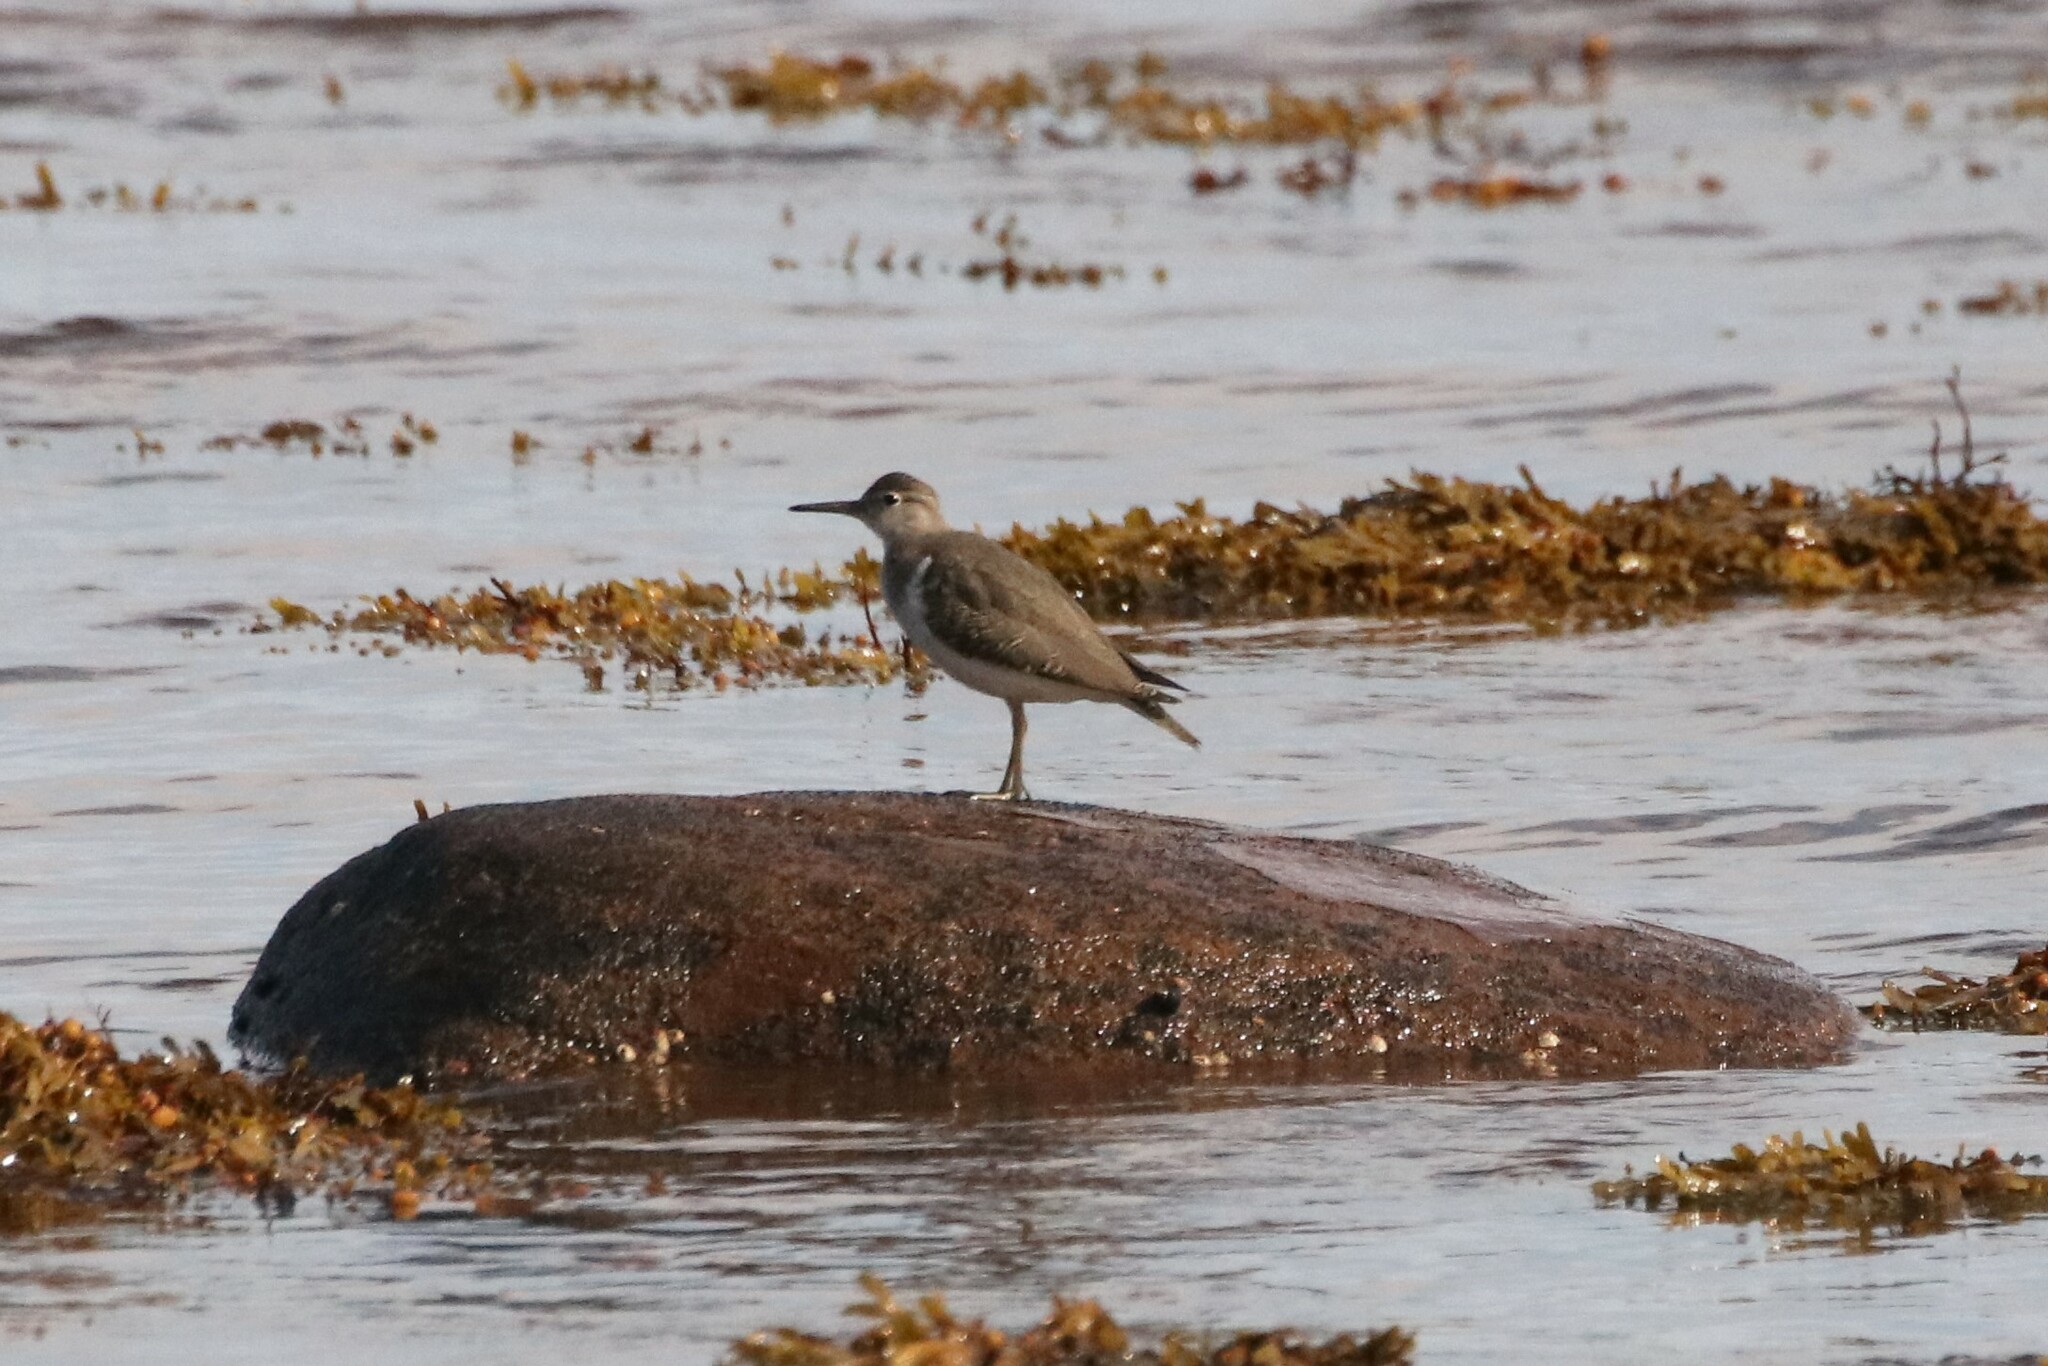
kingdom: Animalia
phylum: Chordata
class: Aves
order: Charadriiformes
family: Scolopacidae
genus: Actitis
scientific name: Actitis macularius
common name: Spotted sandpiper
